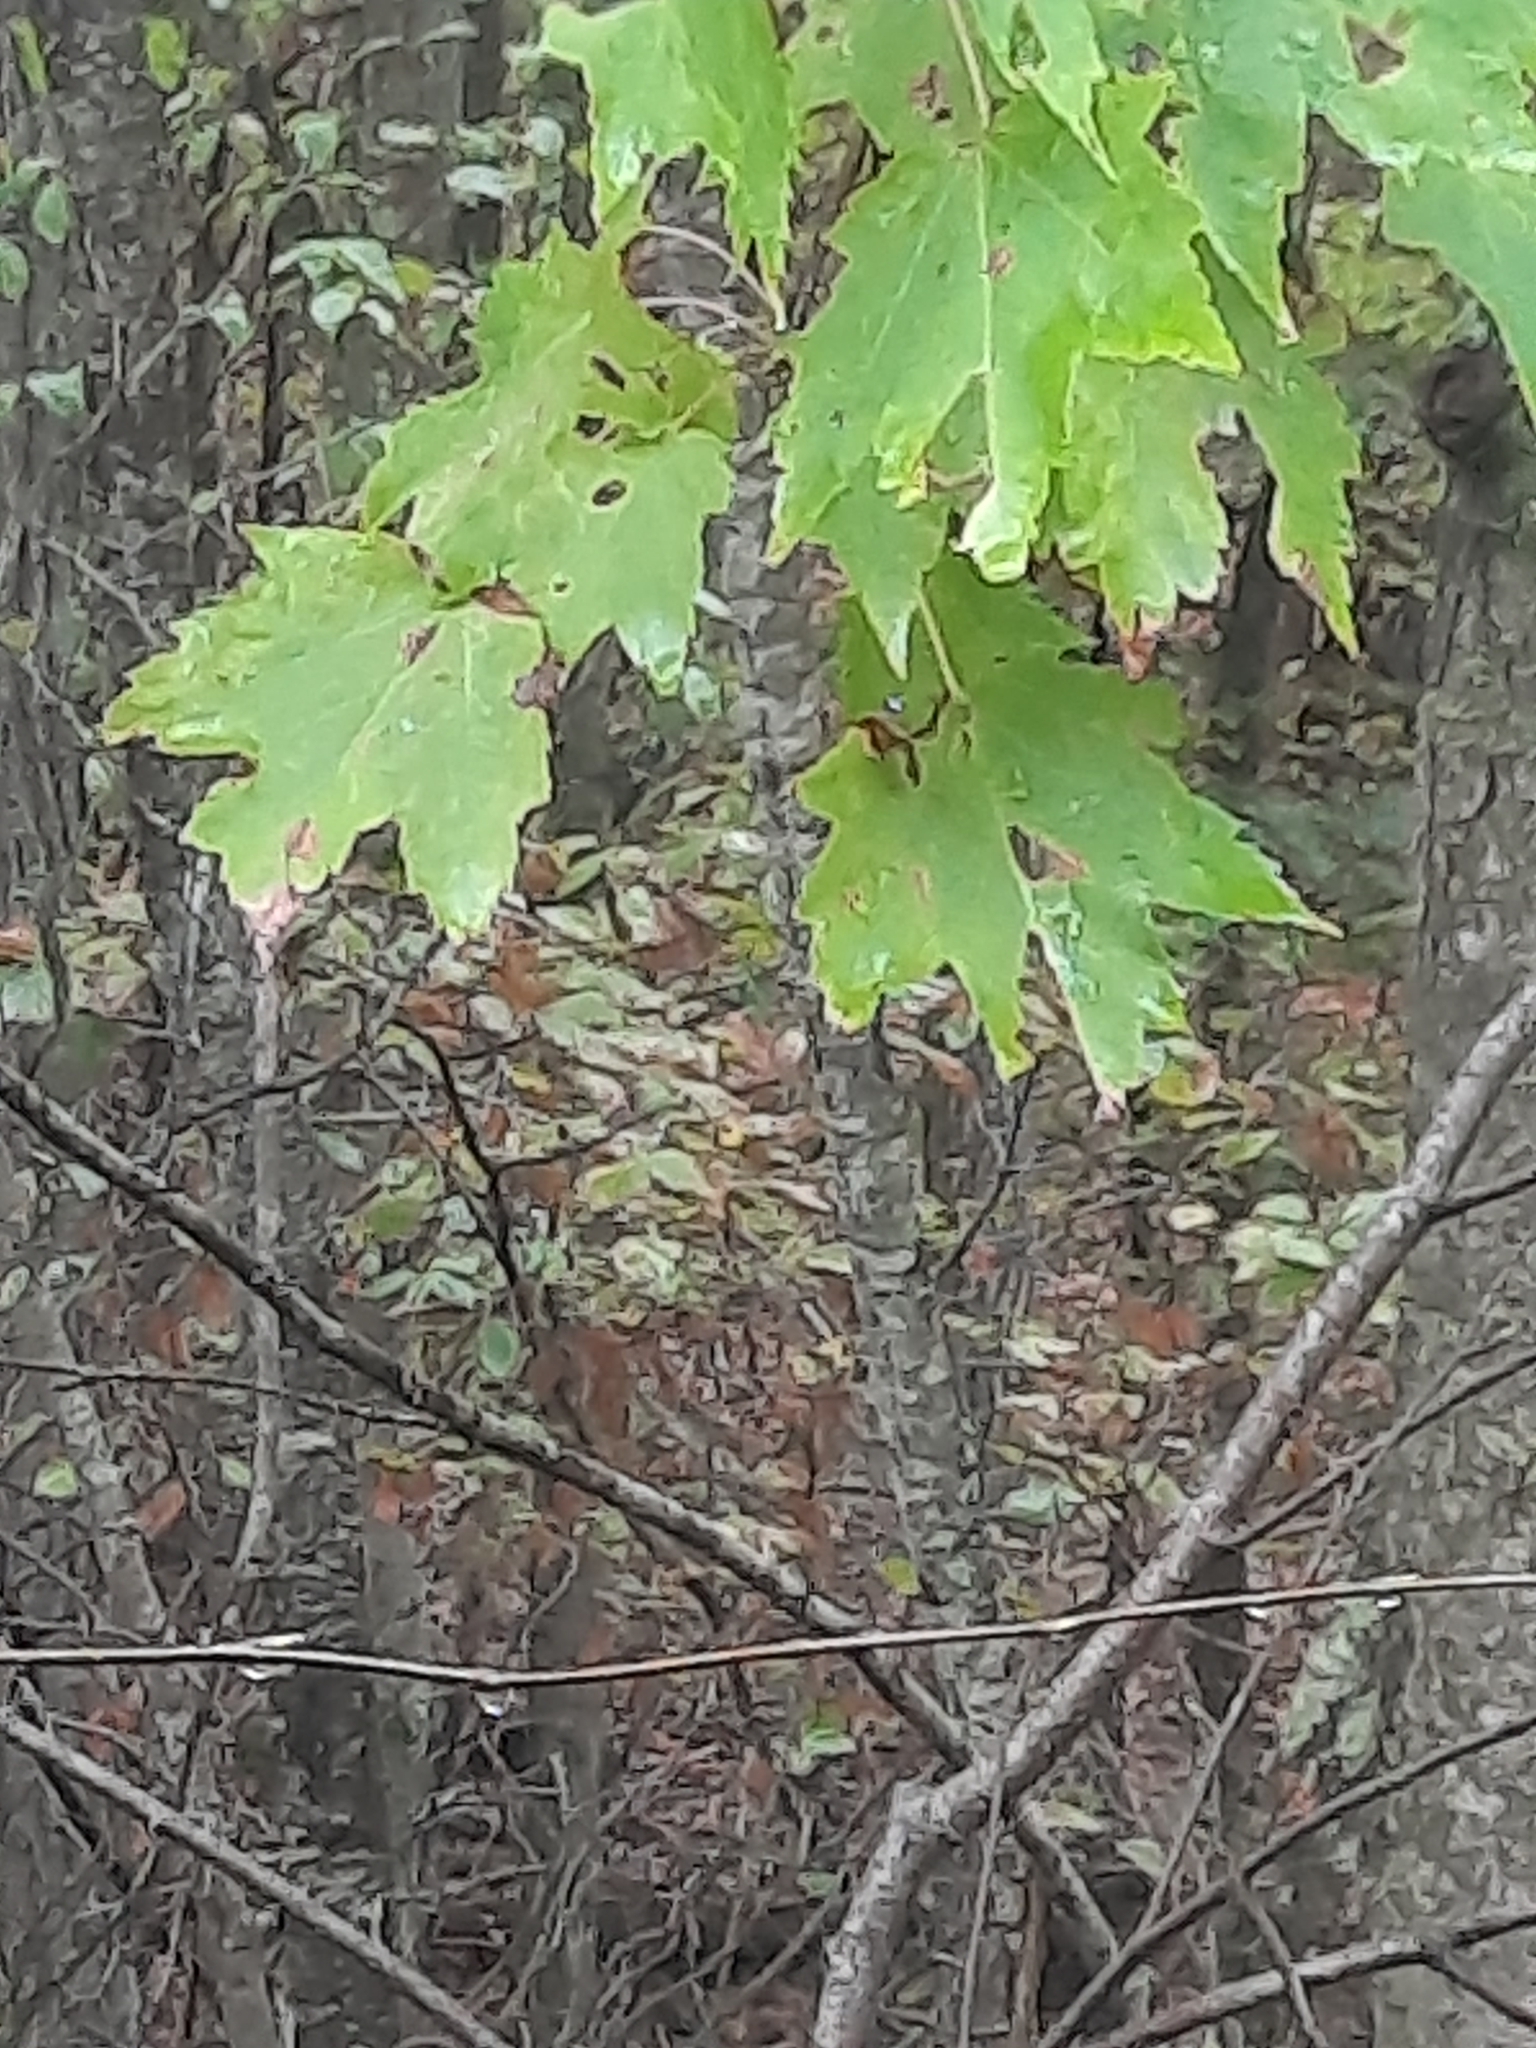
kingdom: Plantae
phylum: Tracheophyta
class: Magnoliopsida
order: Sapindales
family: Sapindaceae
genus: Acer
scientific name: Acer rubrum
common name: Red maple
